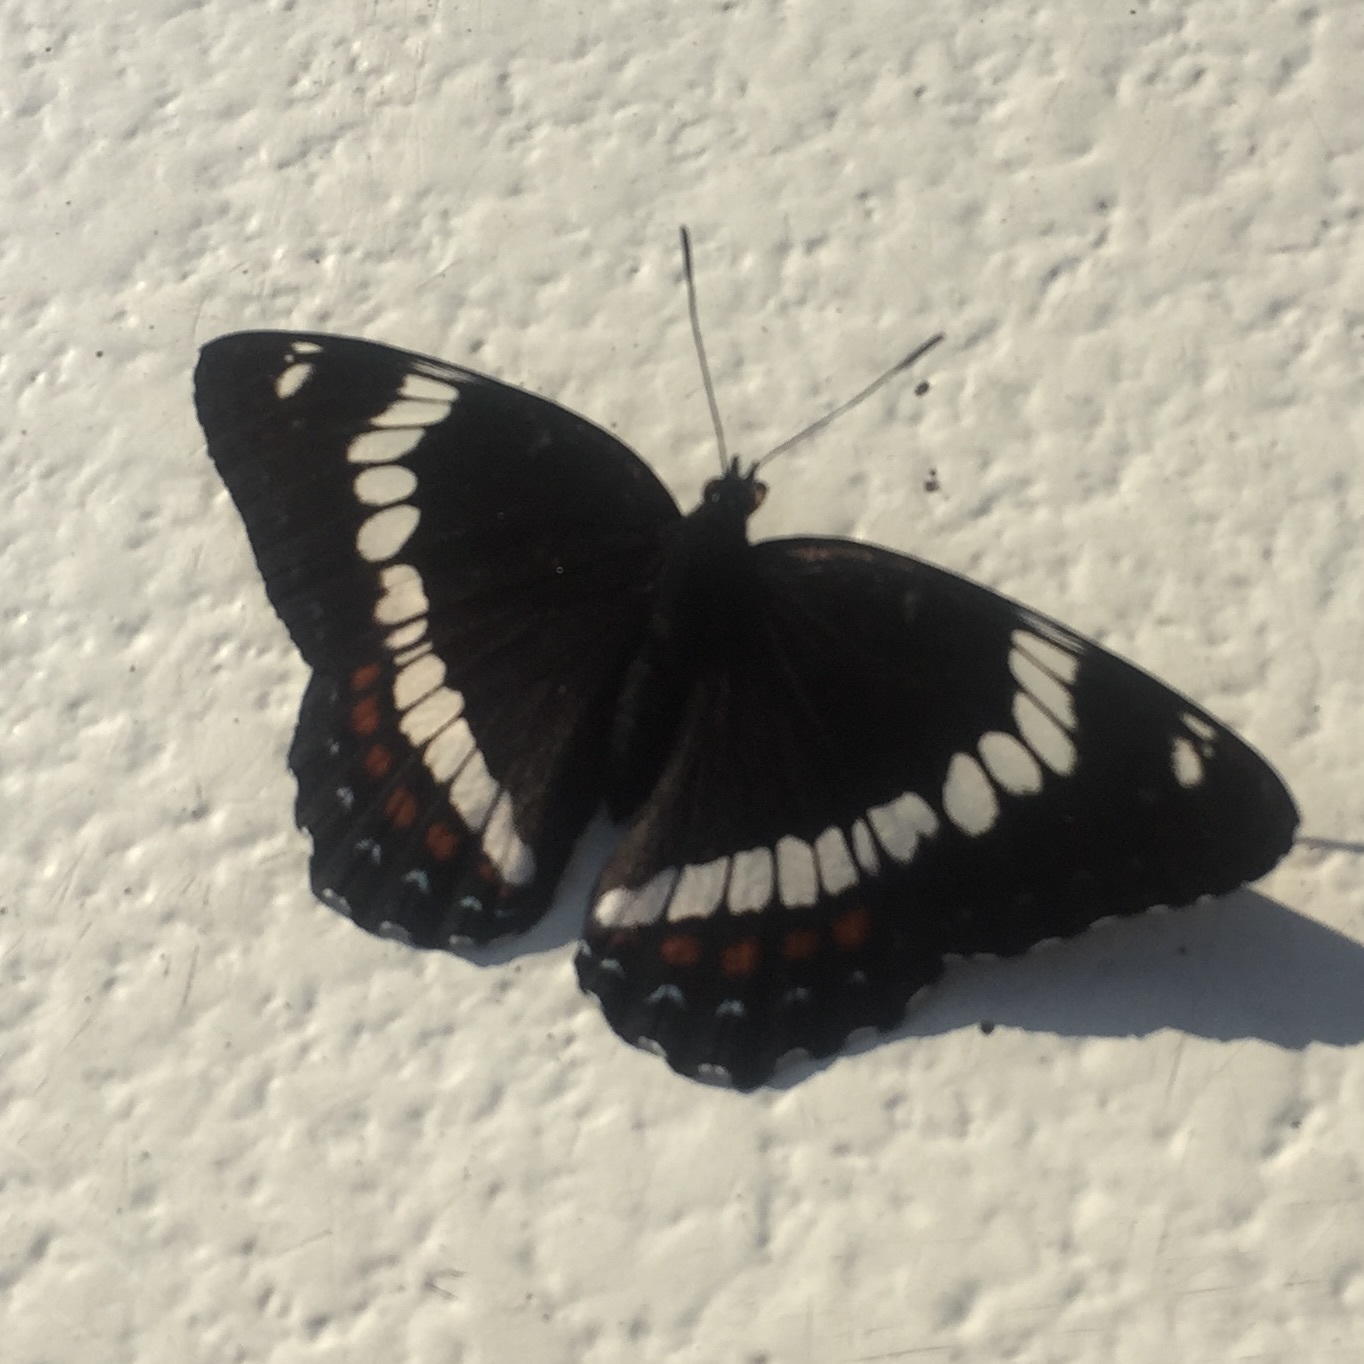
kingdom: Animalia
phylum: Arthropoda
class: Insecta
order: Lepidoptera
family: Nymphalidae
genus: Limenitis
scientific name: Limenitis arthemis
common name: Red-spotted admiral
